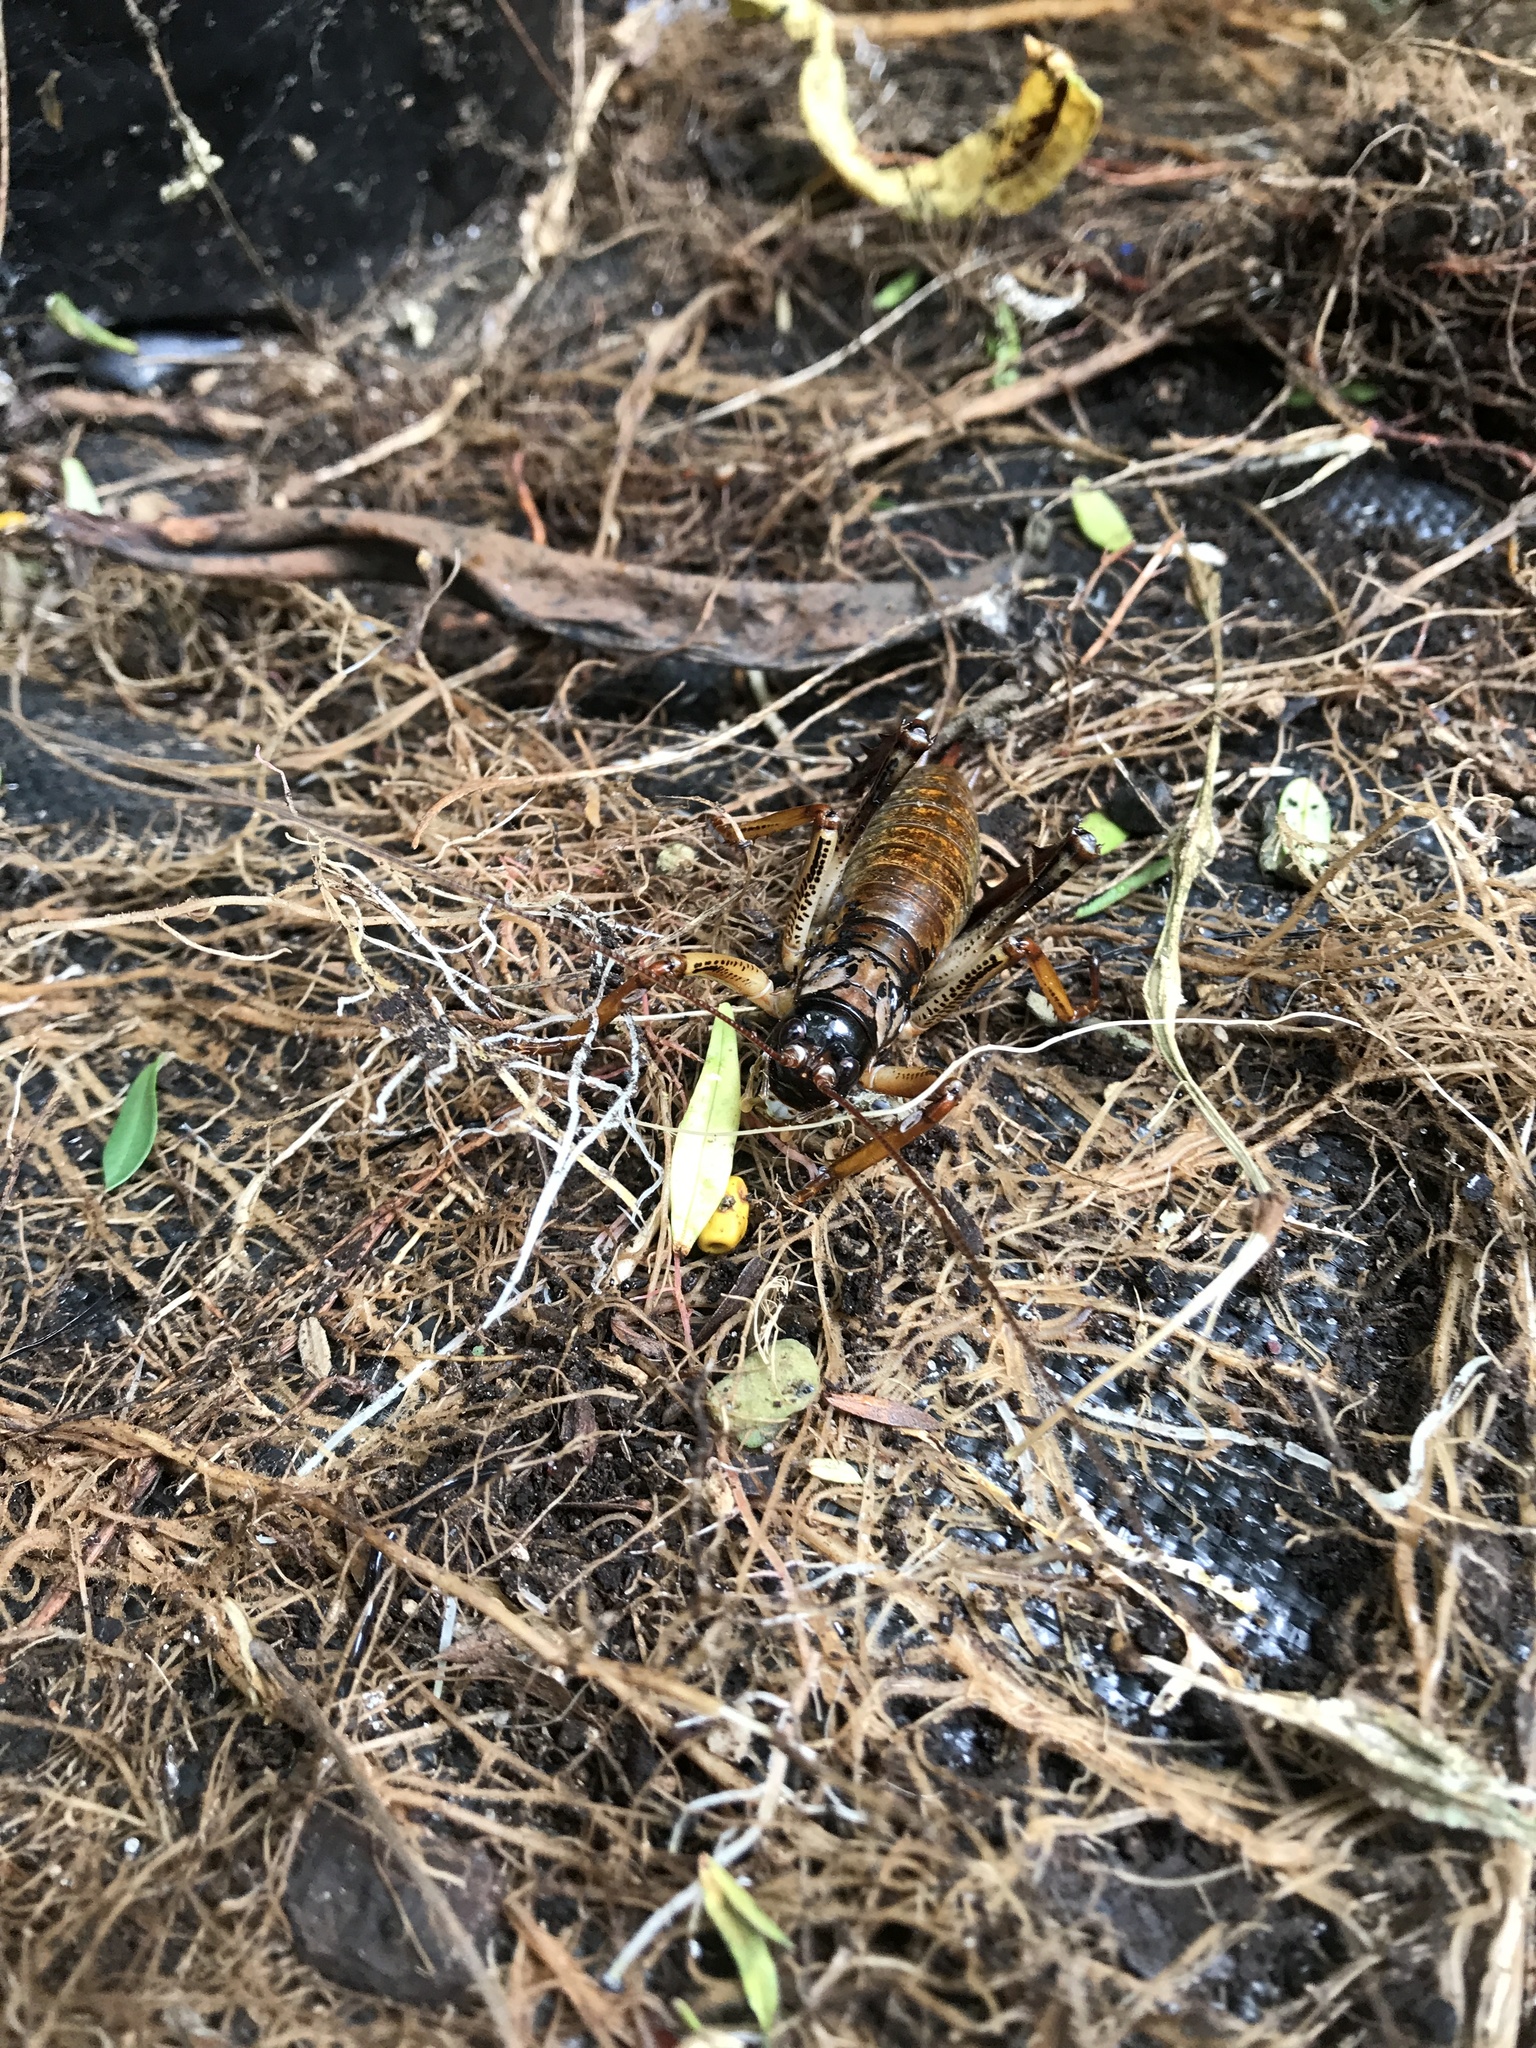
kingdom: Animalia
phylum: Arthropoda
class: Insecta
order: Orthoptera
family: Anostostomatidae
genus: Hemideina
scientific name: Hemideina thoracica
